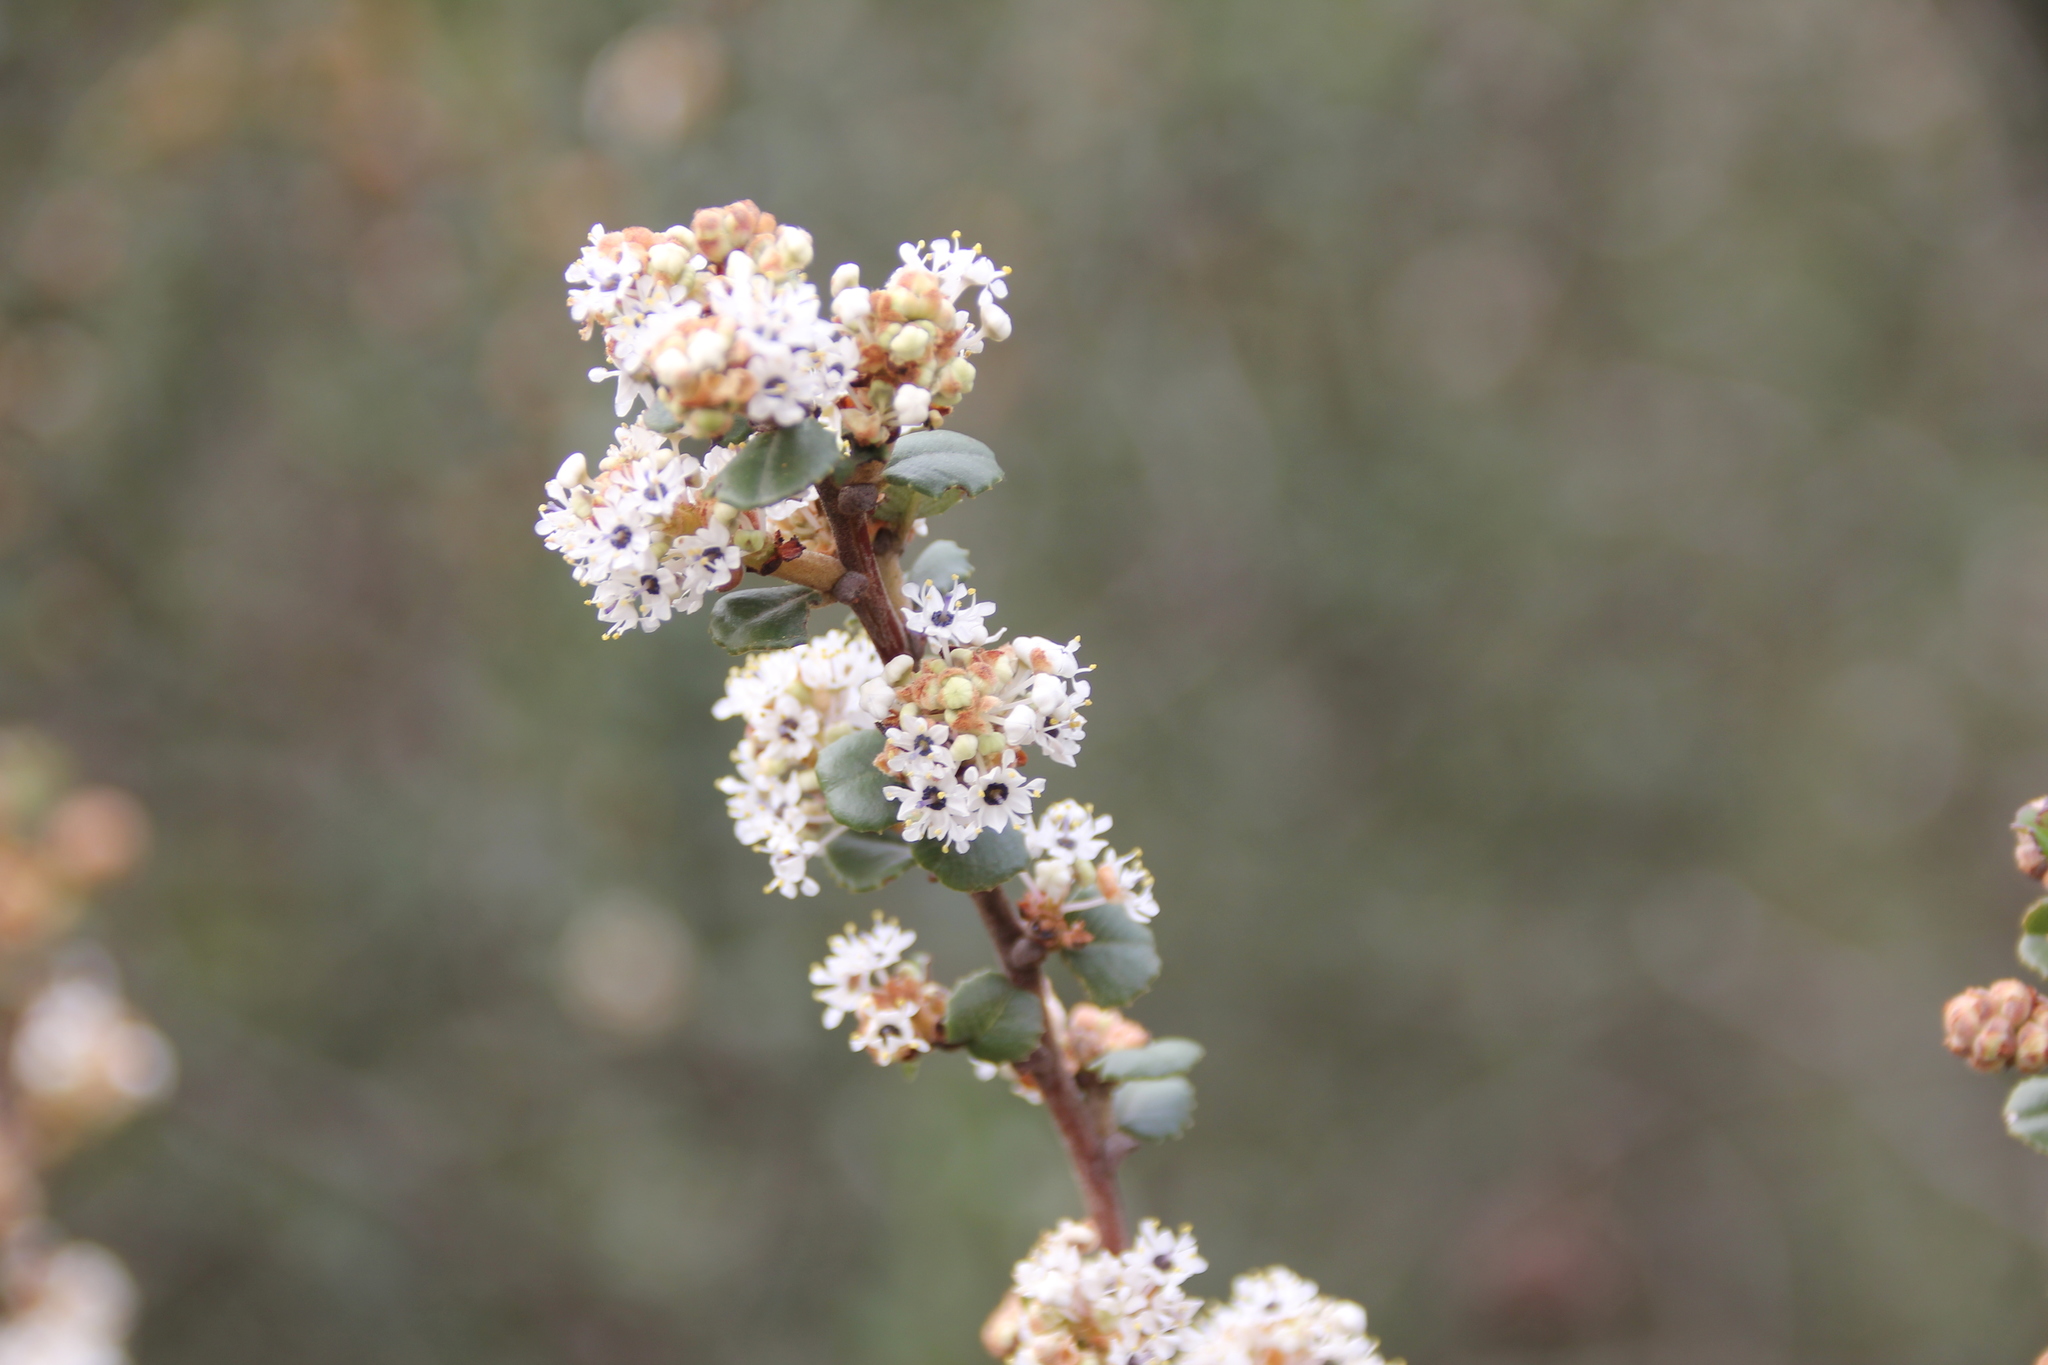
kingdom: Plantae
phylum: Tracheophyta
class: Magnoliopsida
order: Rosales
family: Rhamnaceae
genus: Ceanothus
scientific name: Ceanothus verrucosus
